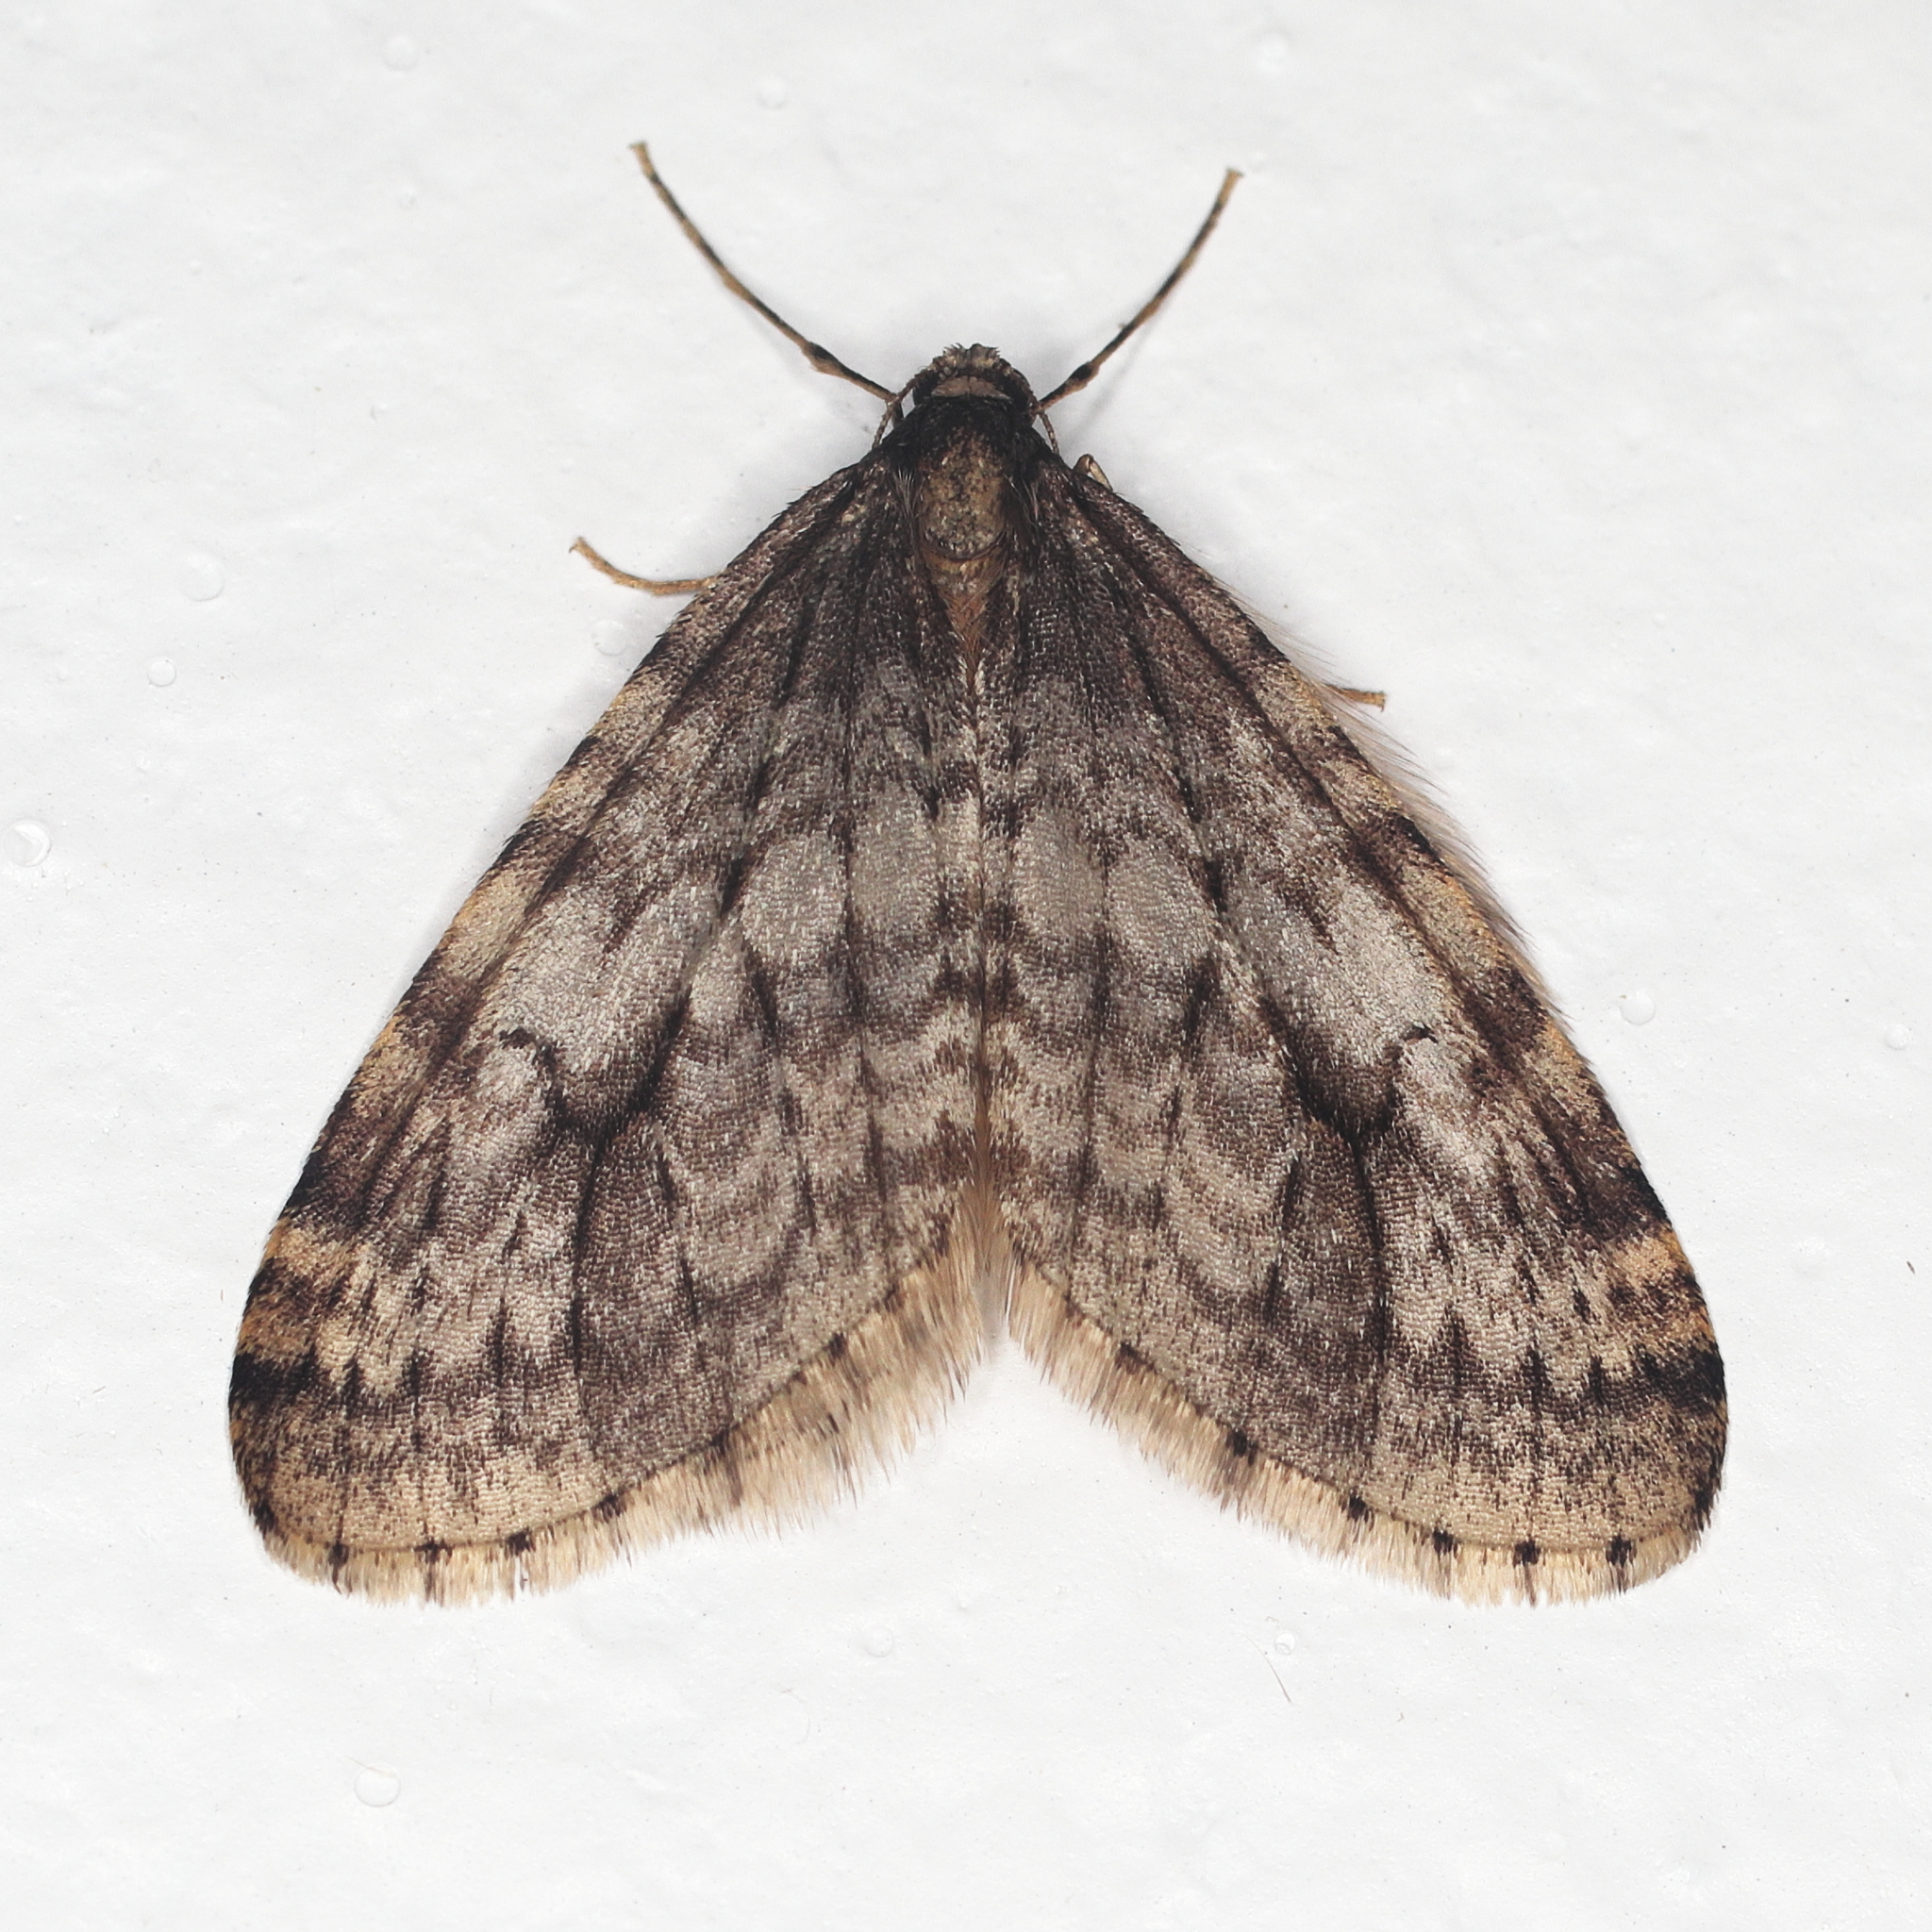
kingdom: Animalia
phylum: Arthropoda
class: Insecta
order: Lepidoptera
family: Geometridae
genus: Operophtera
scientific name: Operophtera occidentalis
